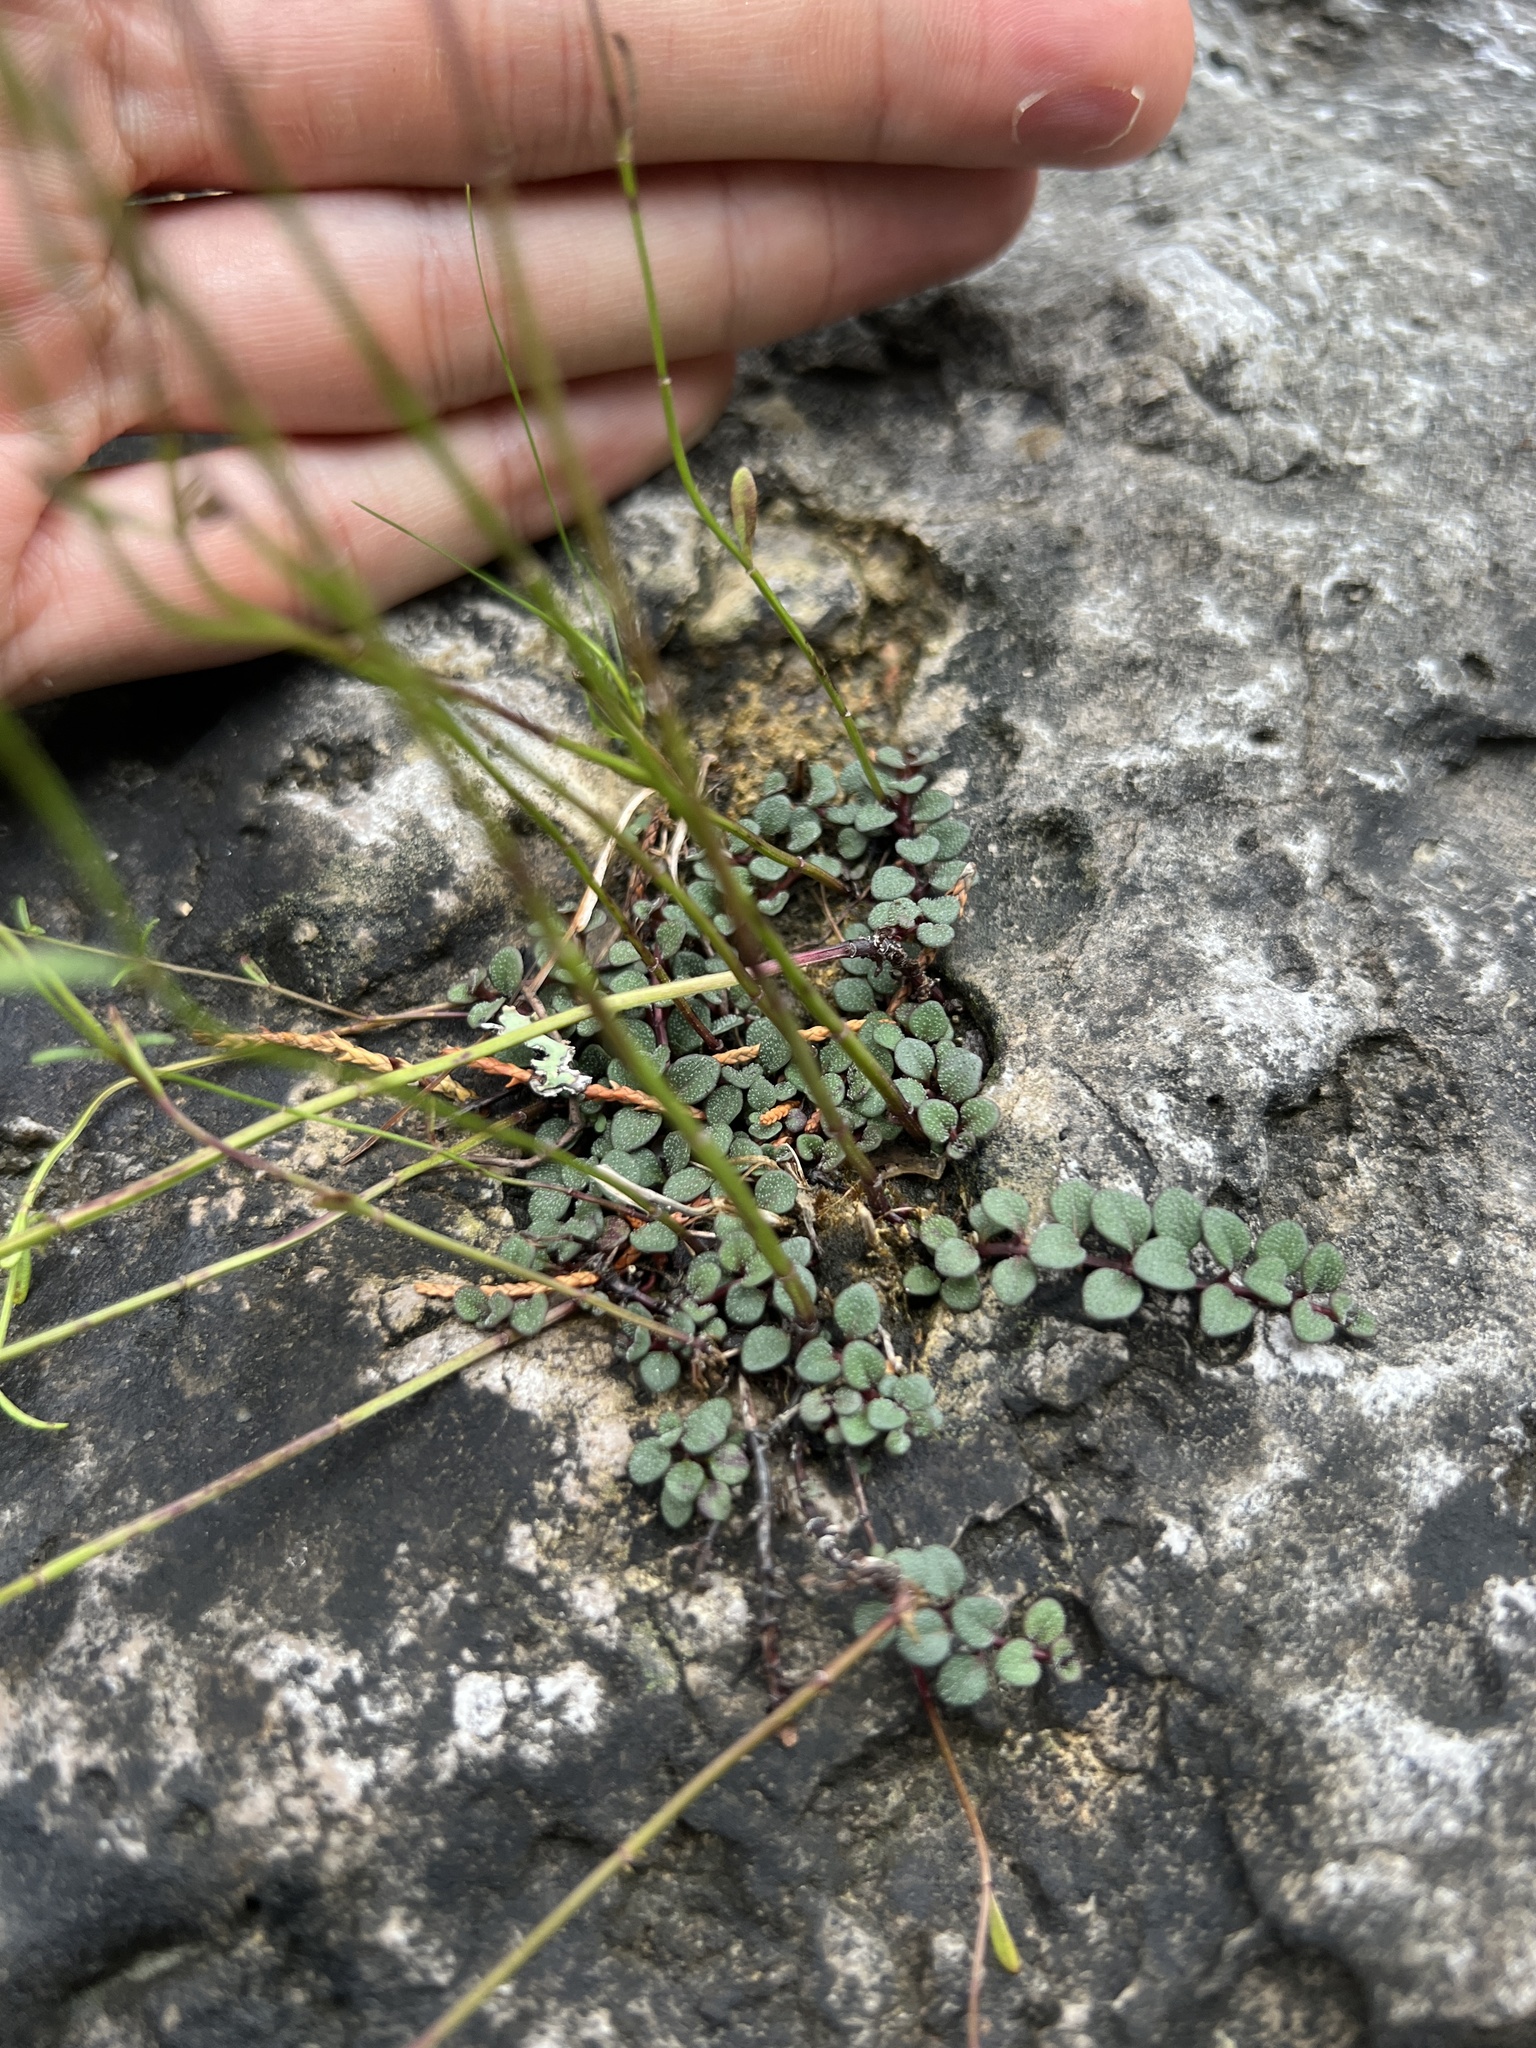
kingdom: Plantae
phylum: Tracheophyta
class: Magnoliopsida
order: Lamiales
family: Lamiaceae
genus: Clinopodium
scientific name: Clinopodium arkansanum
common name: Limestone calamint
